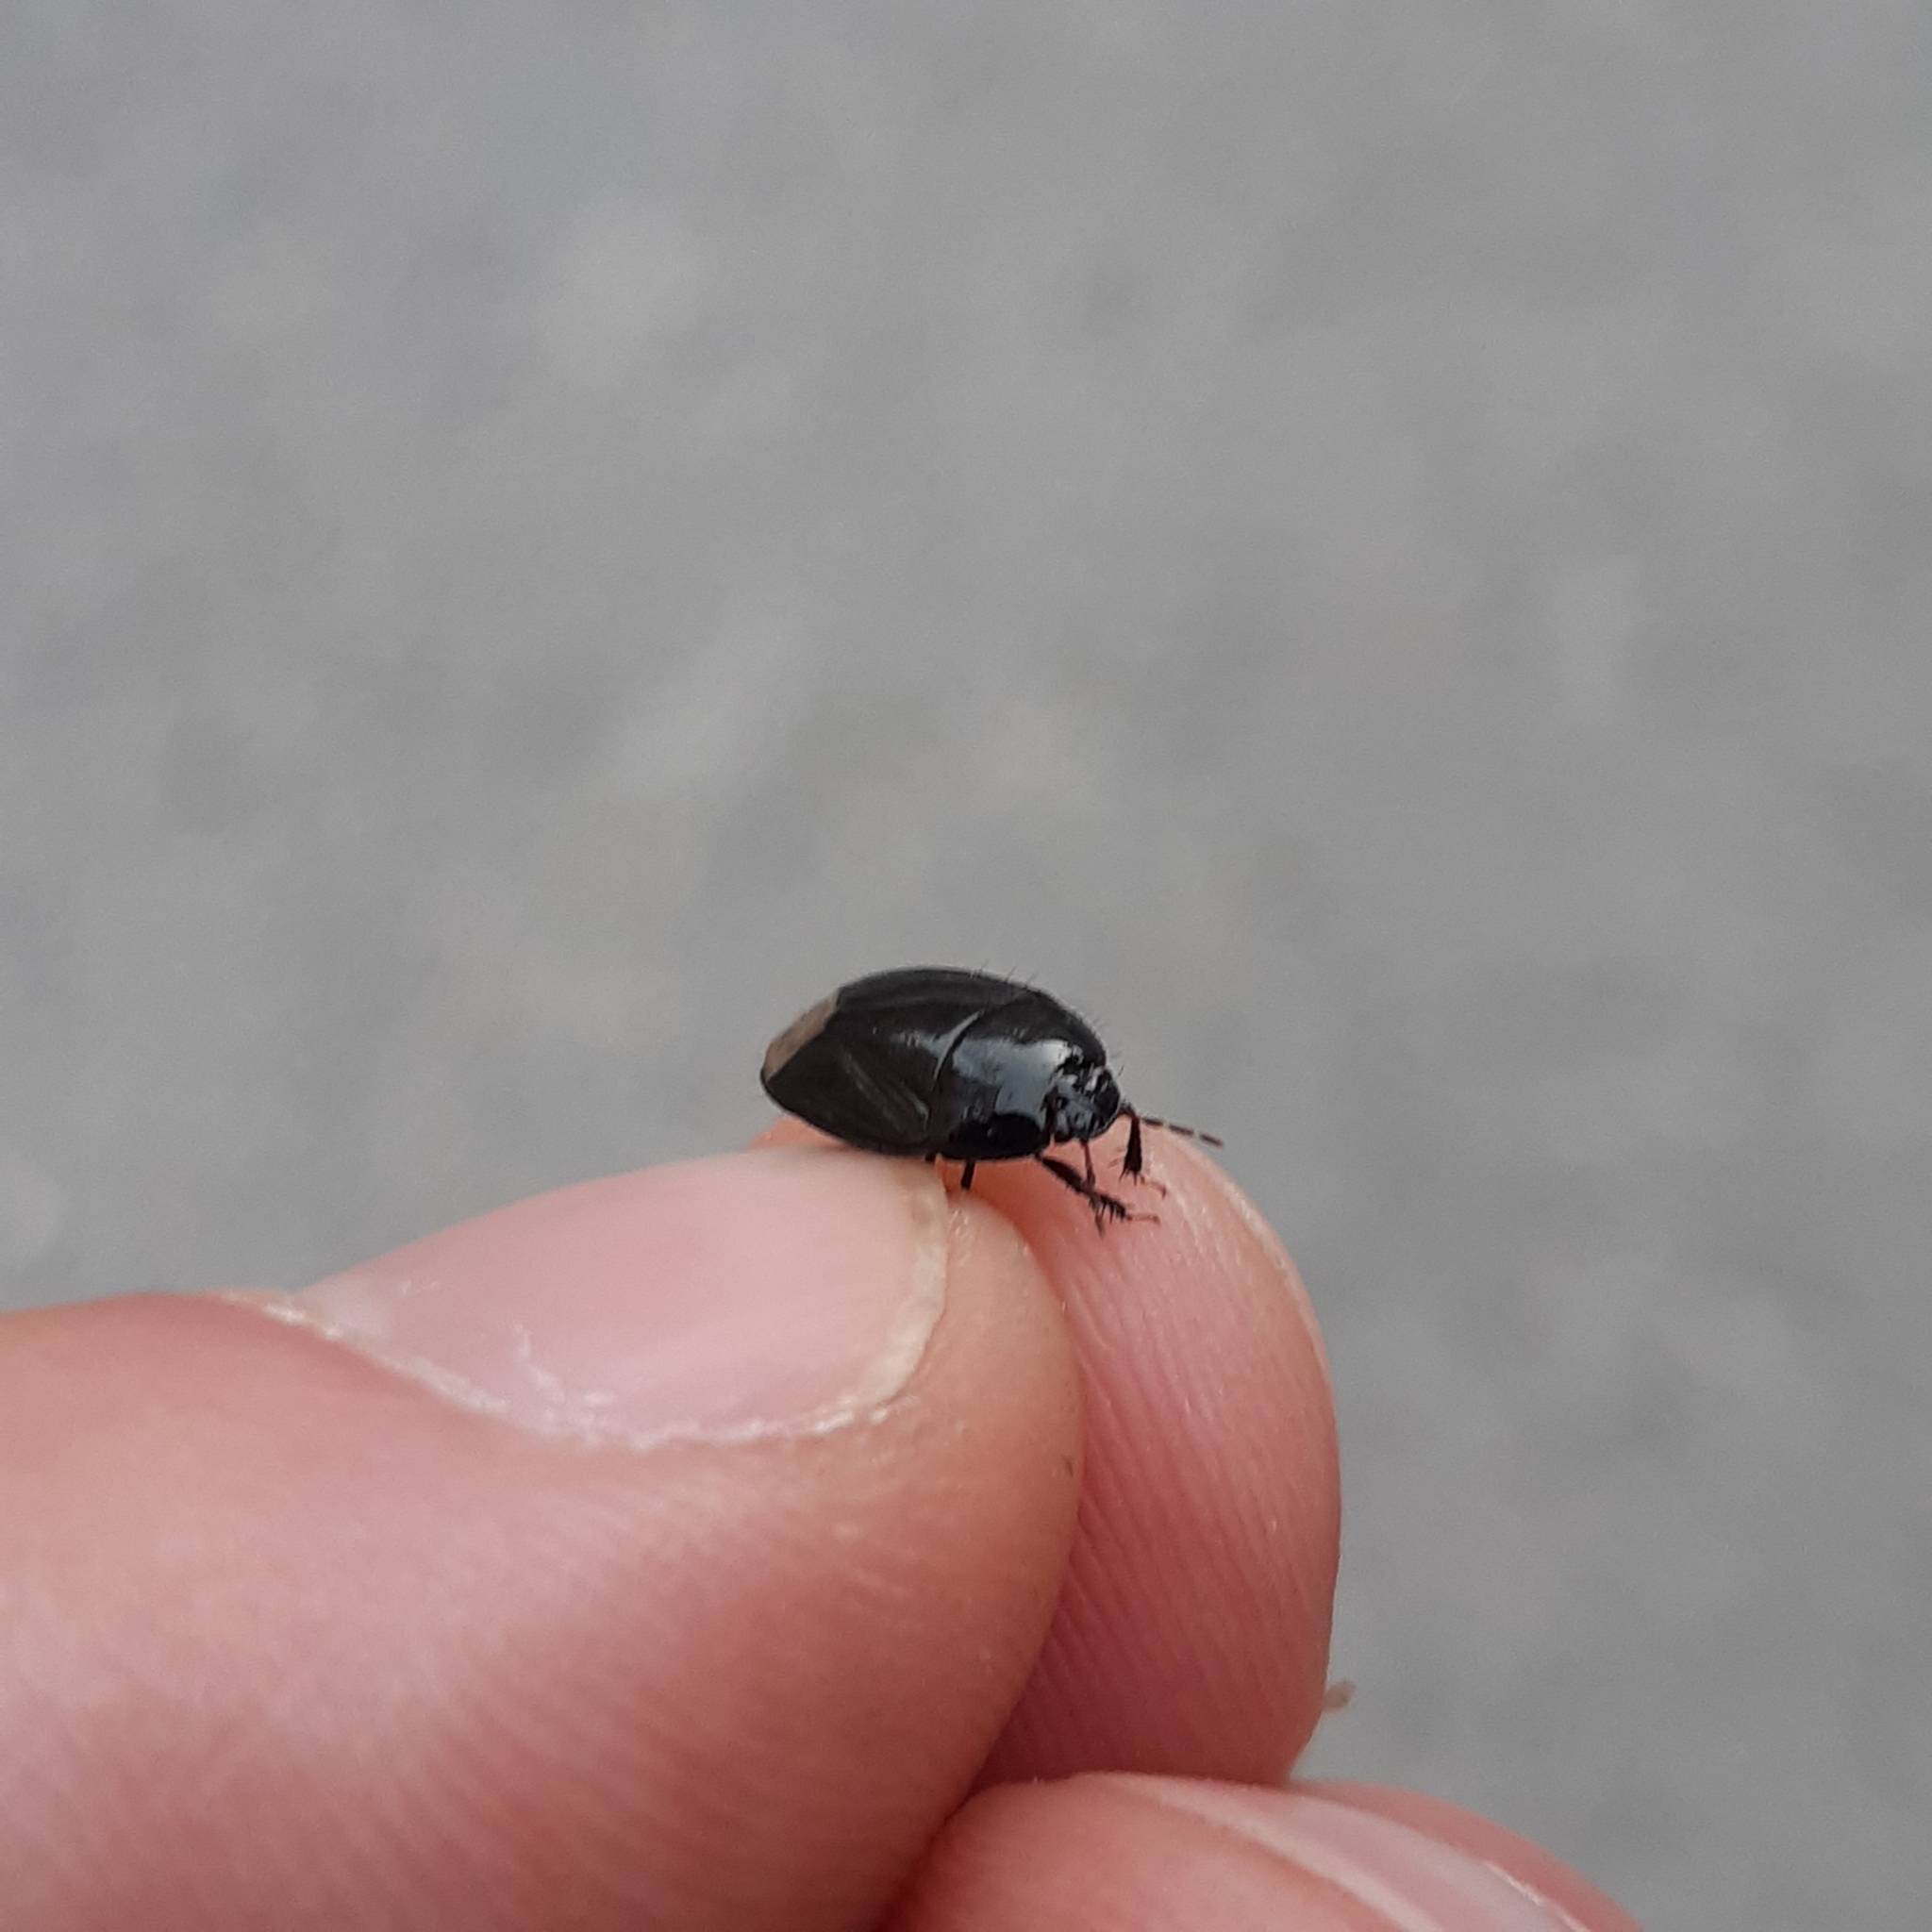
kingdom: Animalia
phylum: Arthropoda
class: Insecta
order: Hemiptera
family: Cydnidae
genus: Macroscytus
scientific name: Macroscytus brunneus
